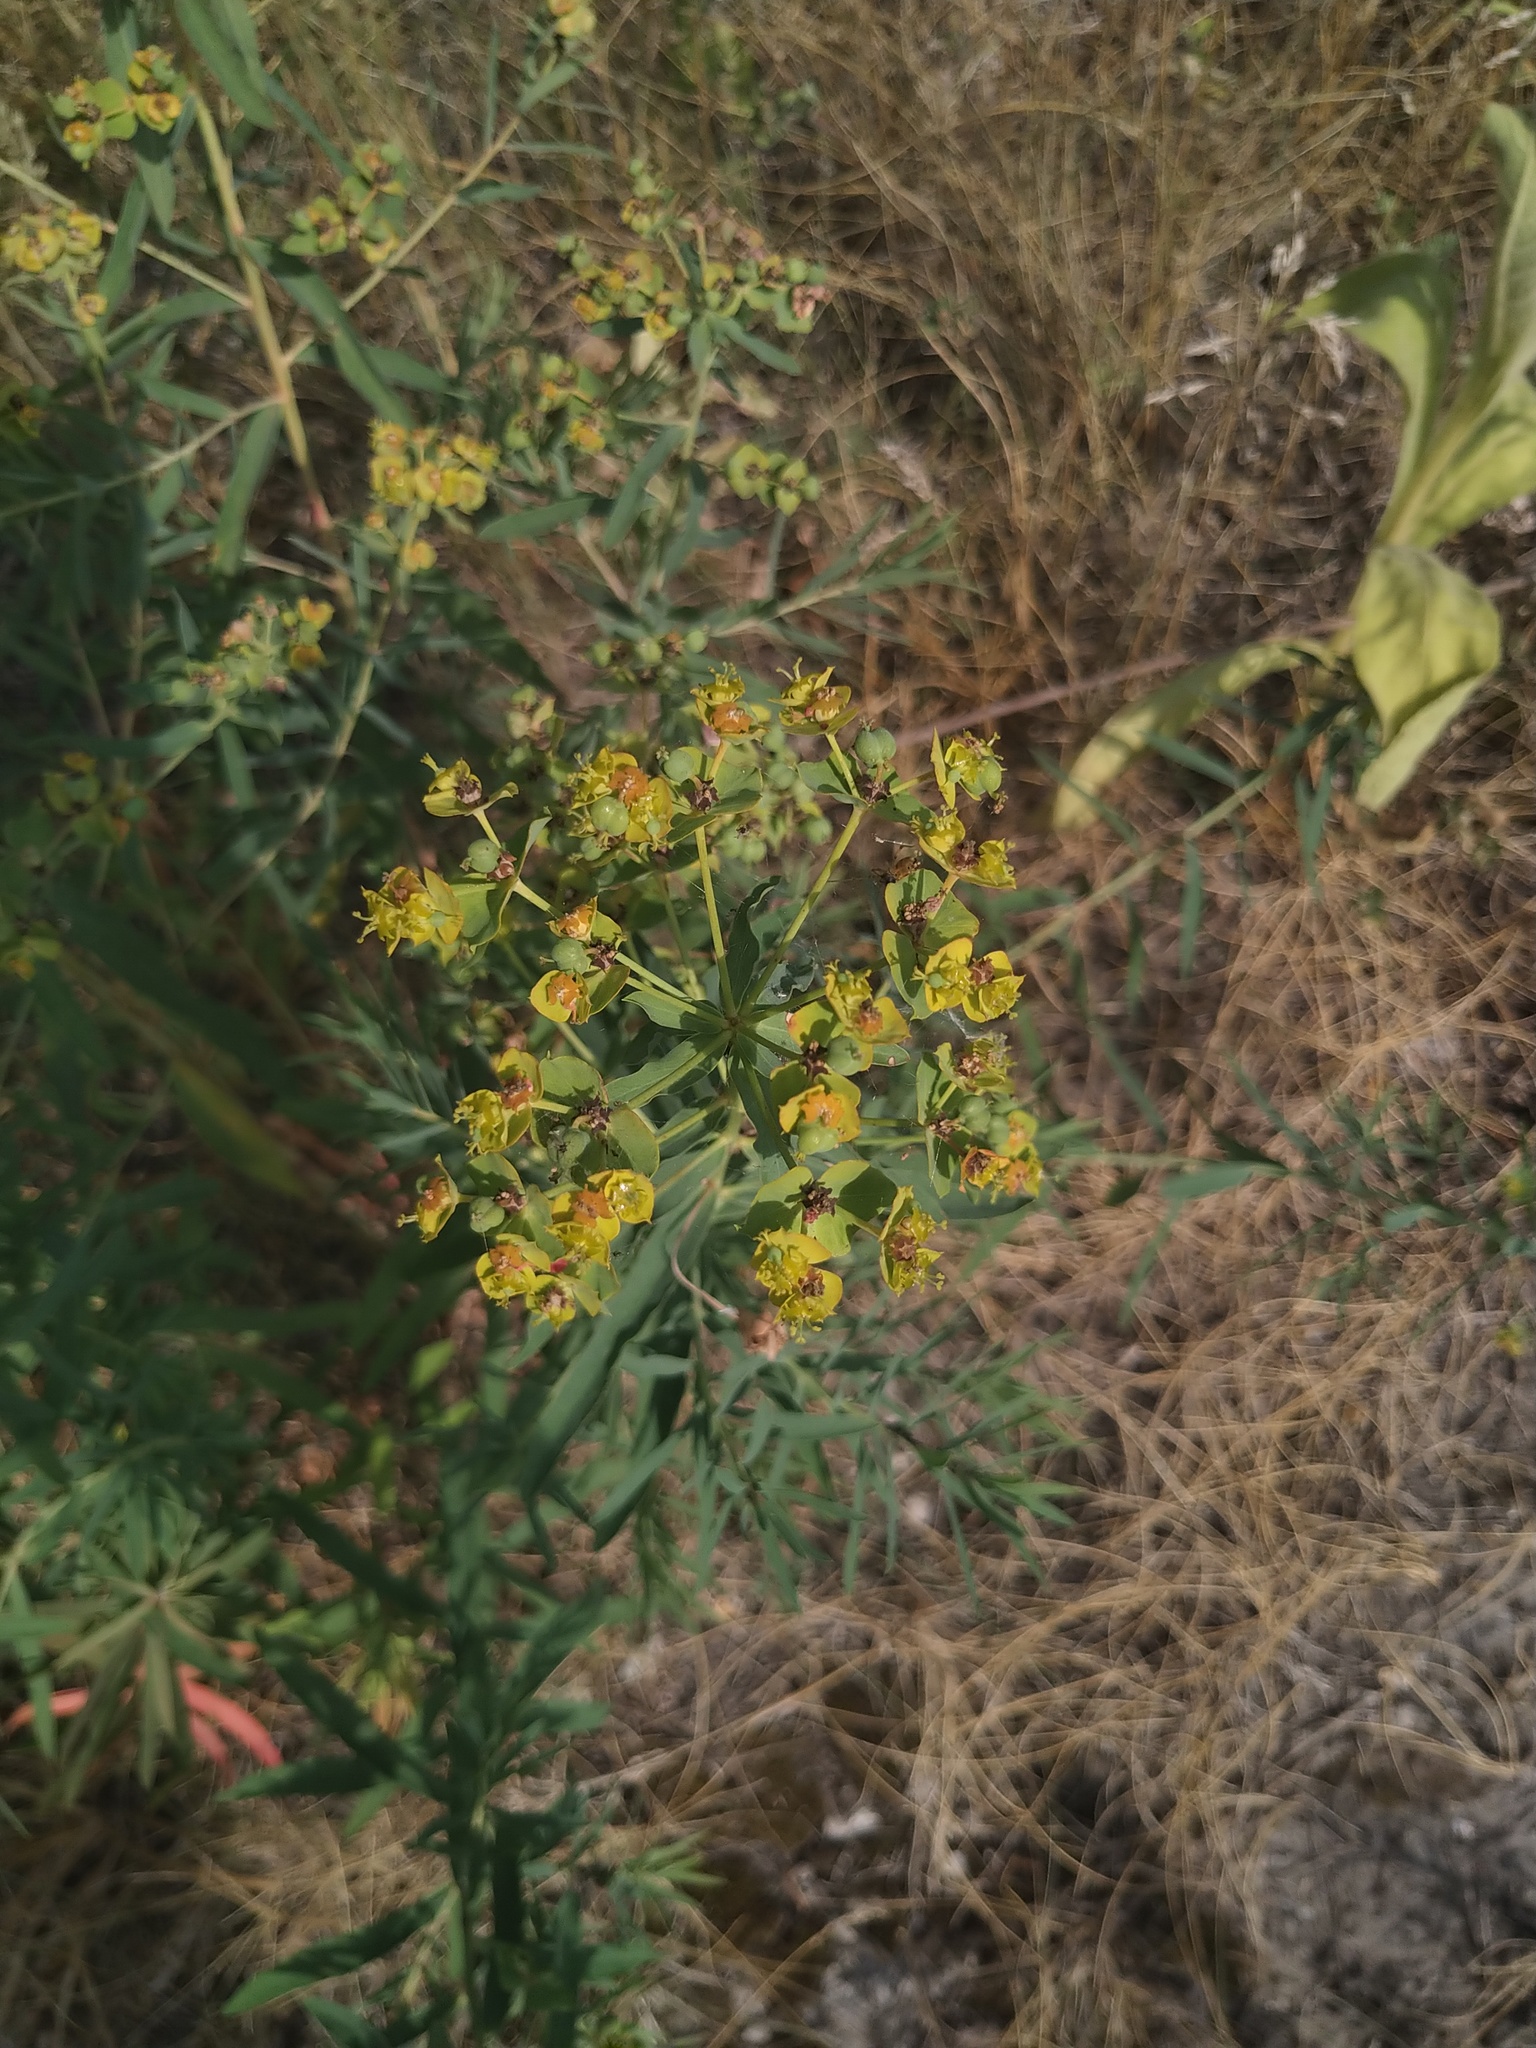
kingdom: Plantae
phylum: Tracheophyta
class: Magnoliopsida
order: Malpighiales
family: Euphorbiaceae
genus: Euphorbia
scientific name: Euphorbia virgata
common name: Leafy spurge
